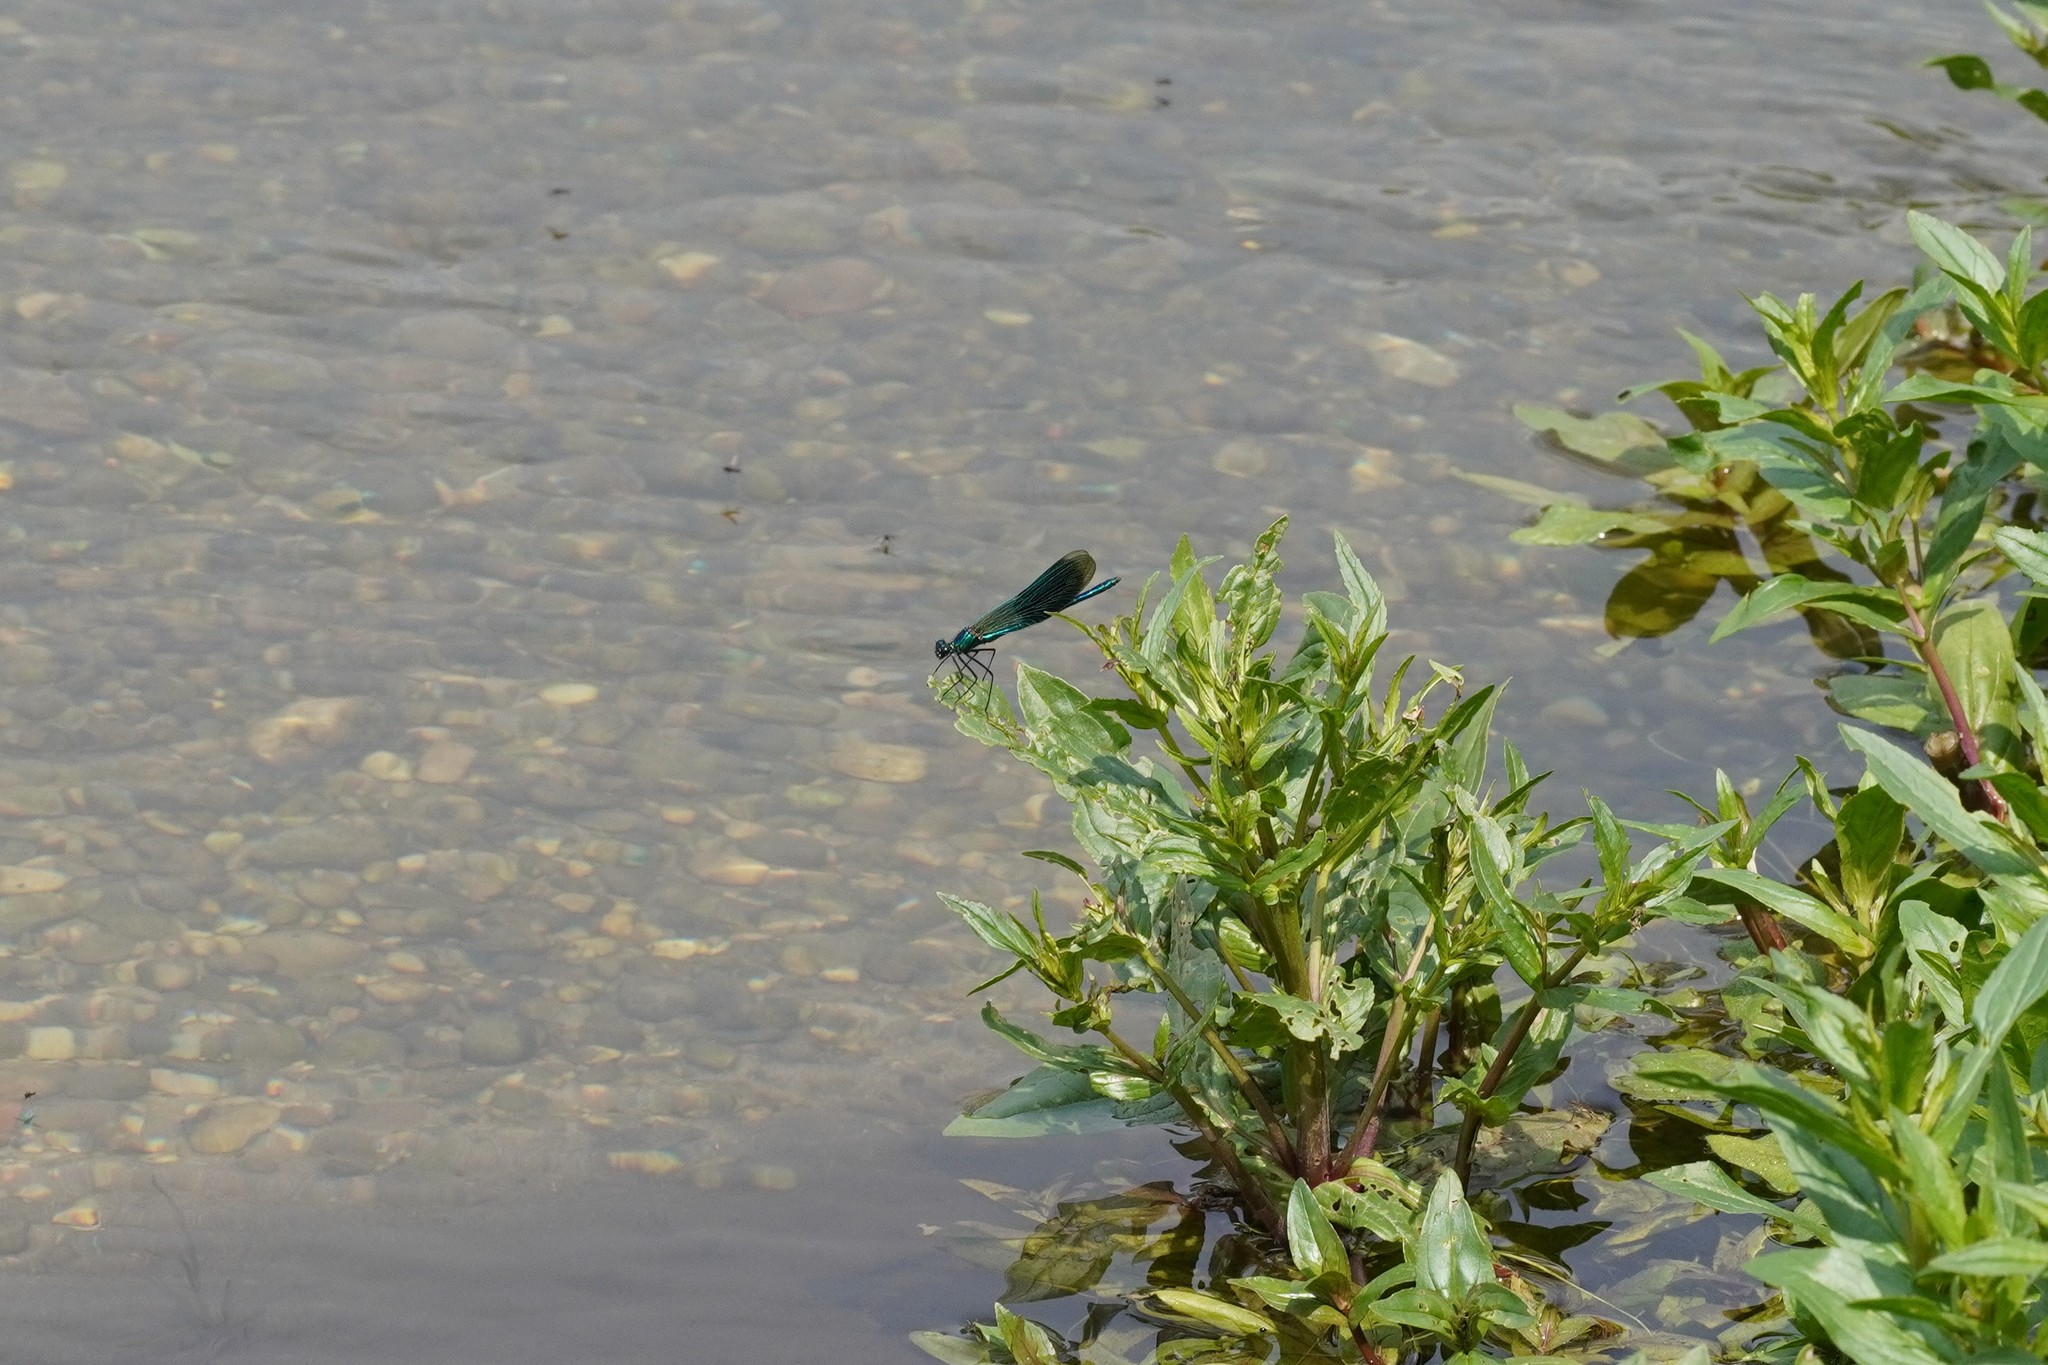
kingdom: Animalia
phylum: Arthropoda
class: Insecta
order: Odonata
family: Calopterygidae
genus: Calopteryx
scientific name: Calopteryx splendens
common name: Banded demoiselle
